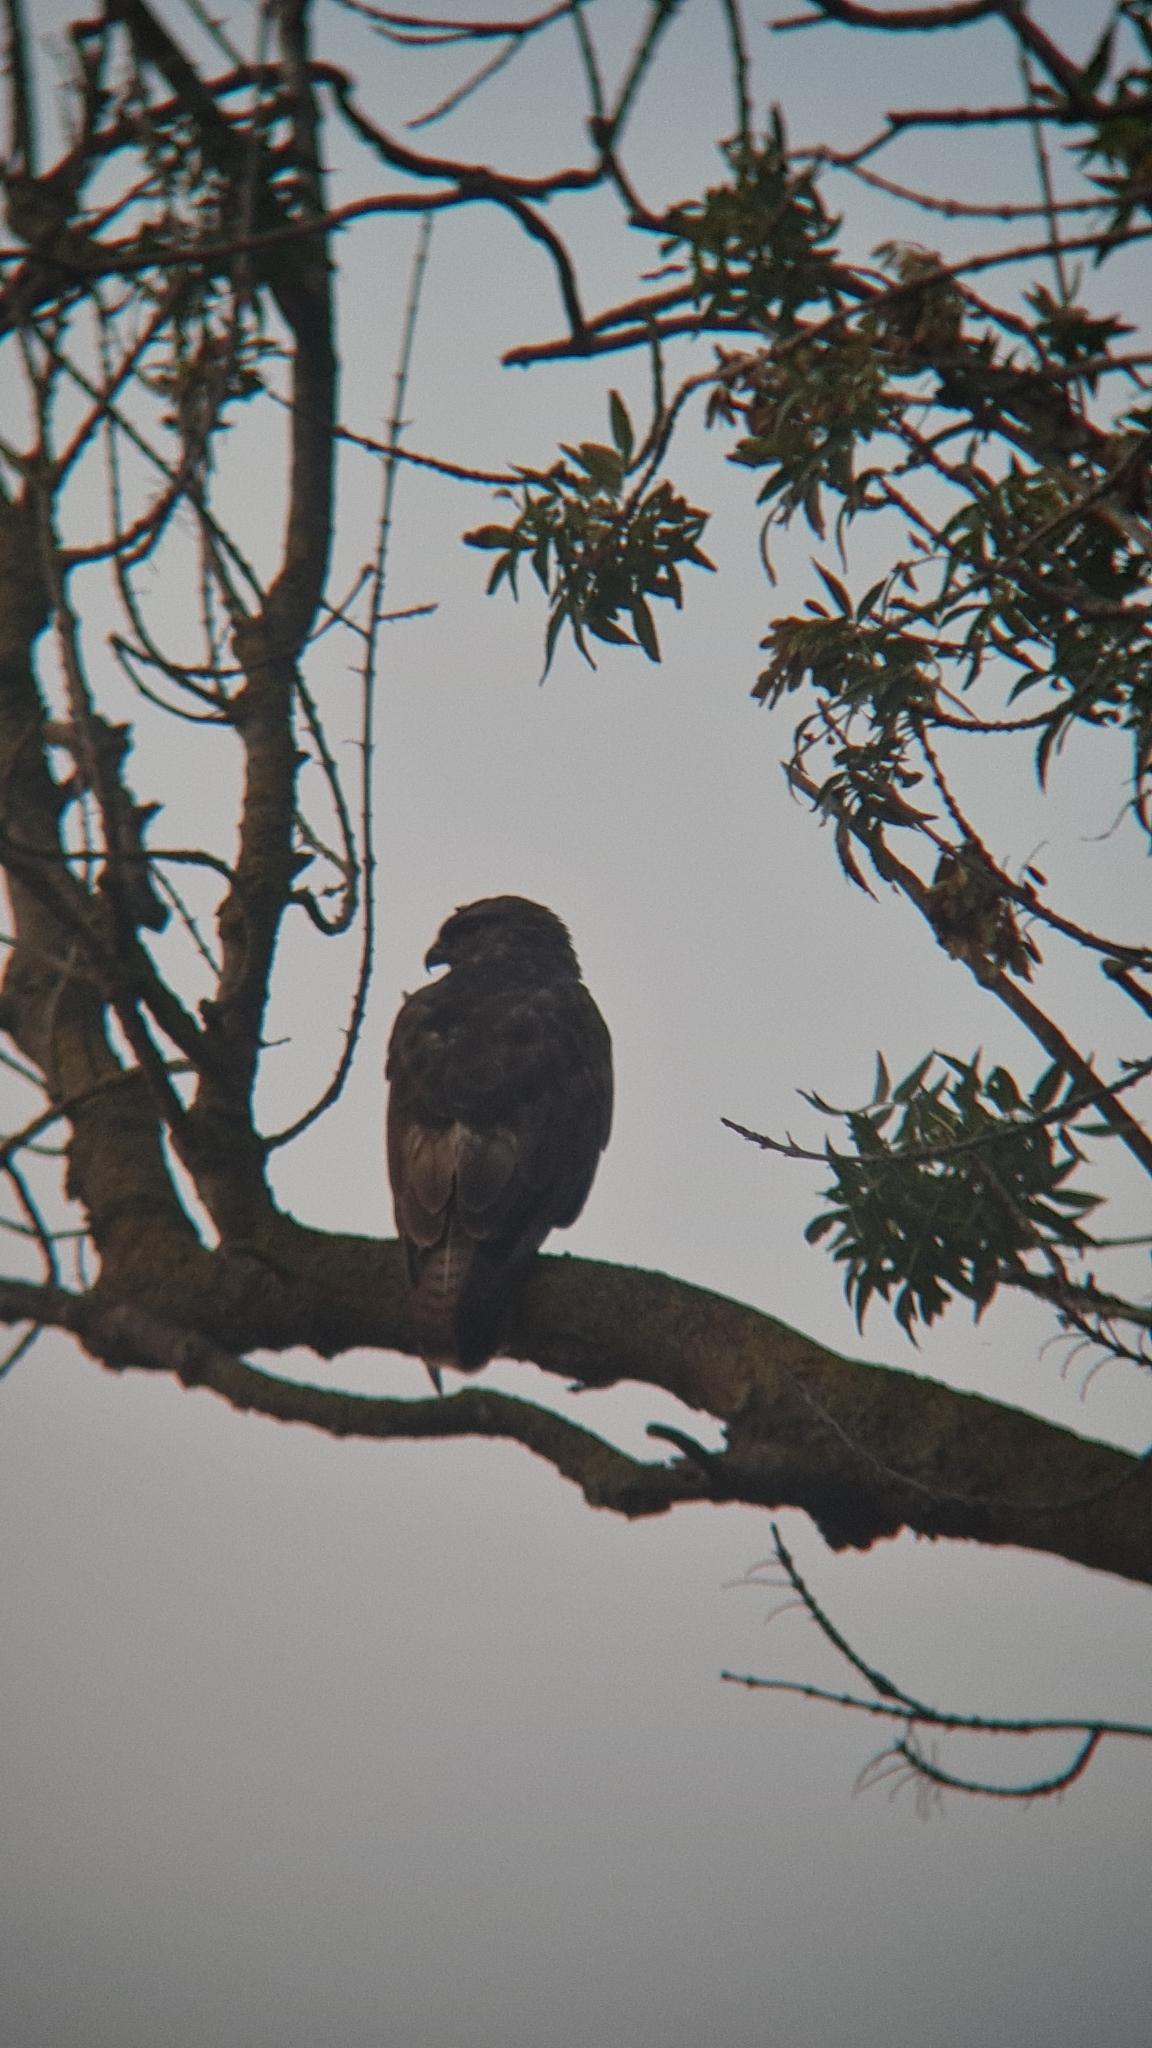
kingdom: Animalia
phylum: Chordata
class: Aves
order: Accipitriformes
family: Accipitridae
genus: Buteo
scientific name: Buteo buteo
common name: Common buzzard
